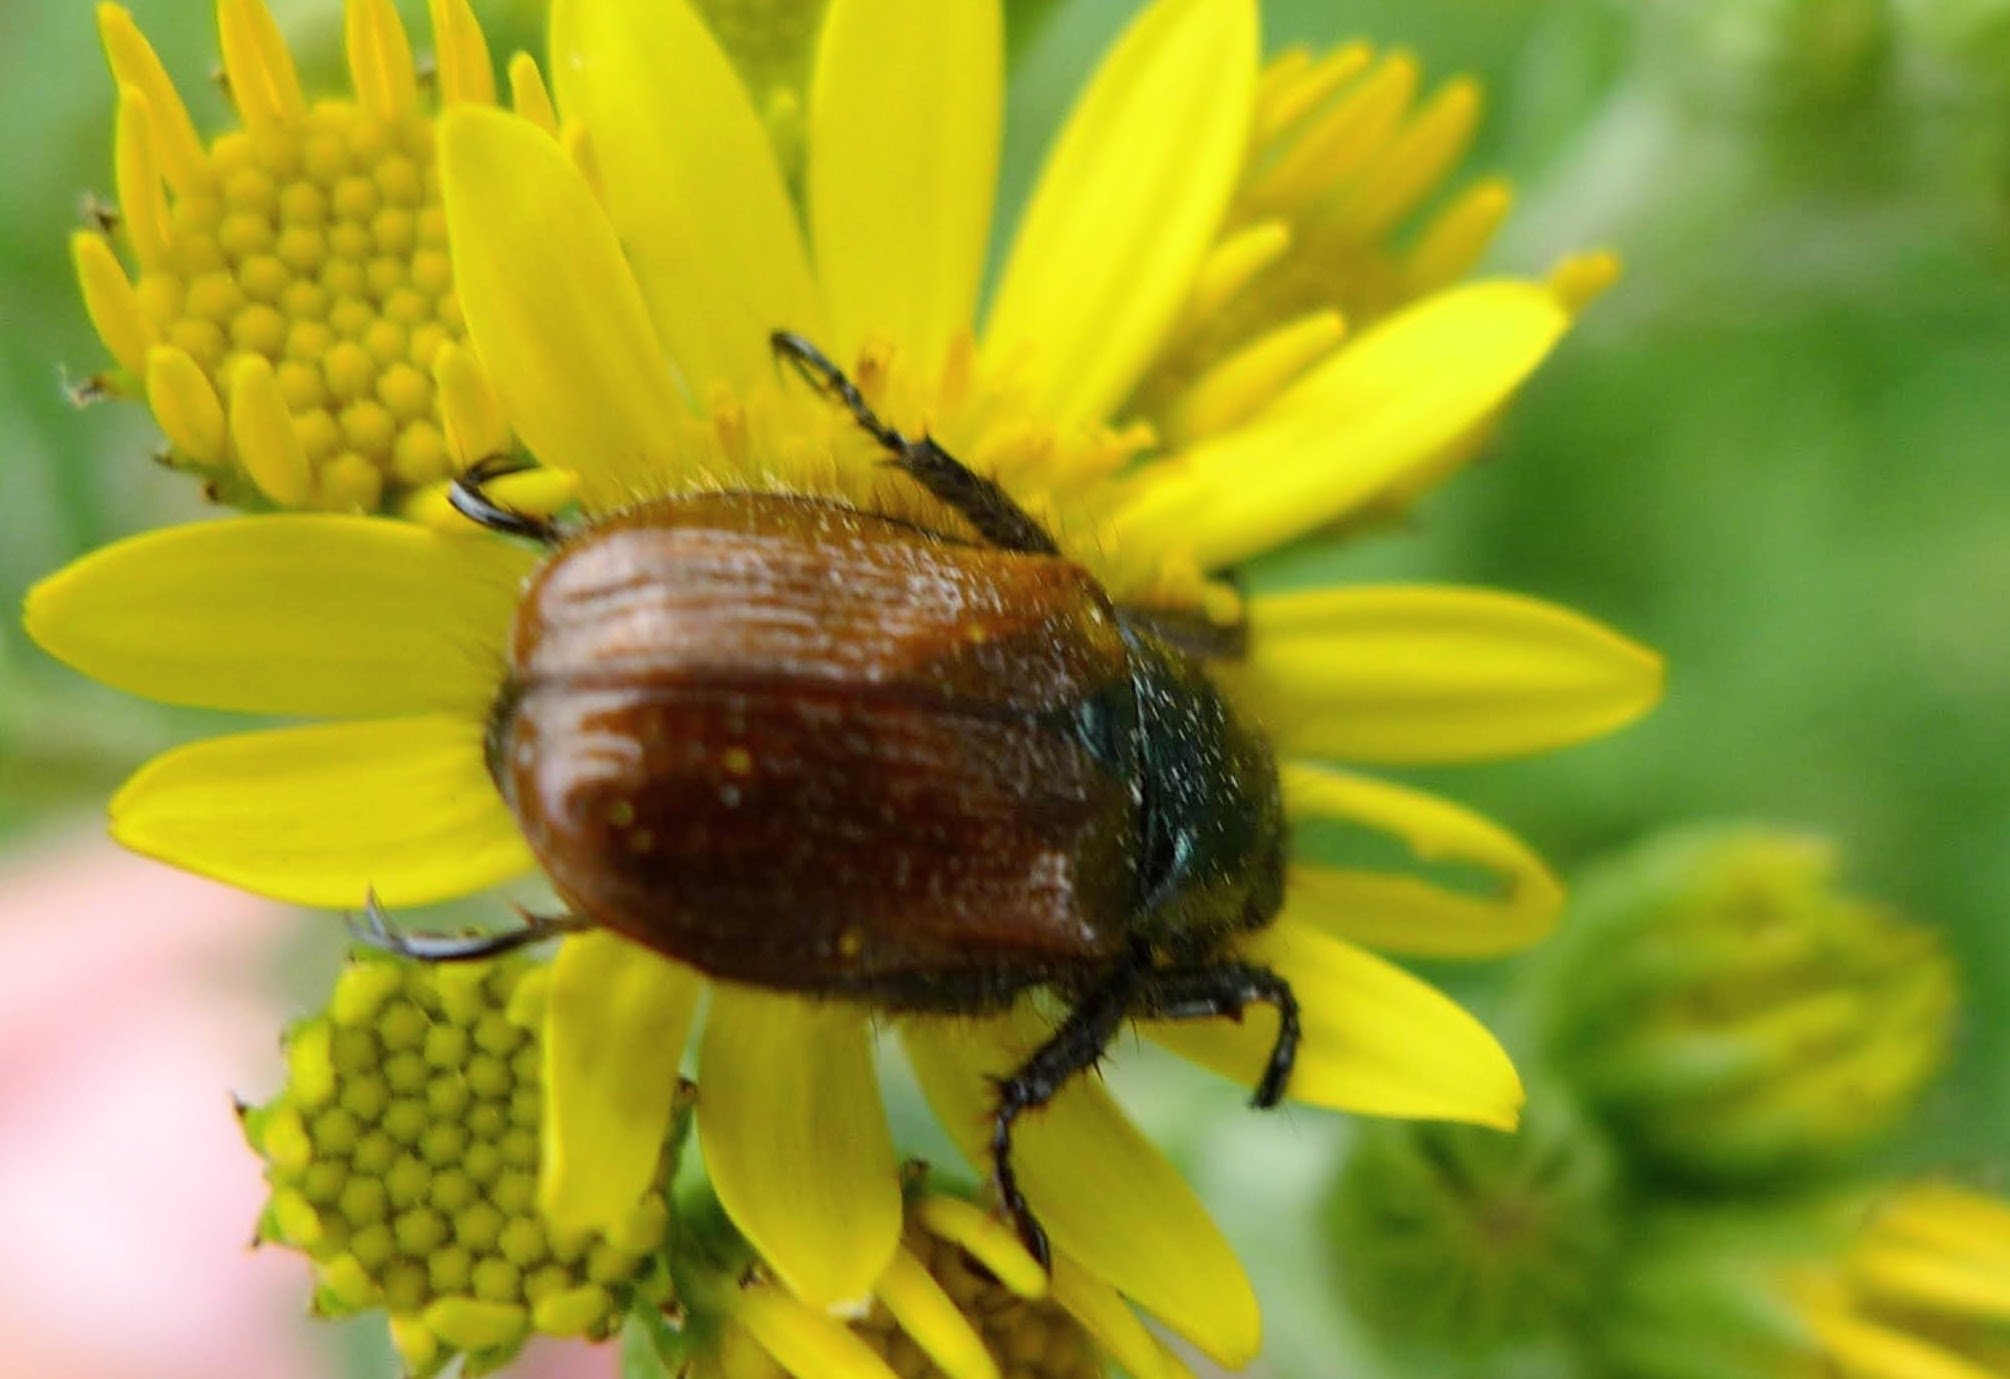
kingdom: Animalia
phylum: Arthropoda
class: Insecta
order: Coleoptera
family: Scarabaeidae
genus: Phyllopertha
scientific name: Phyllopertha horticola
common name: Garden chafer
